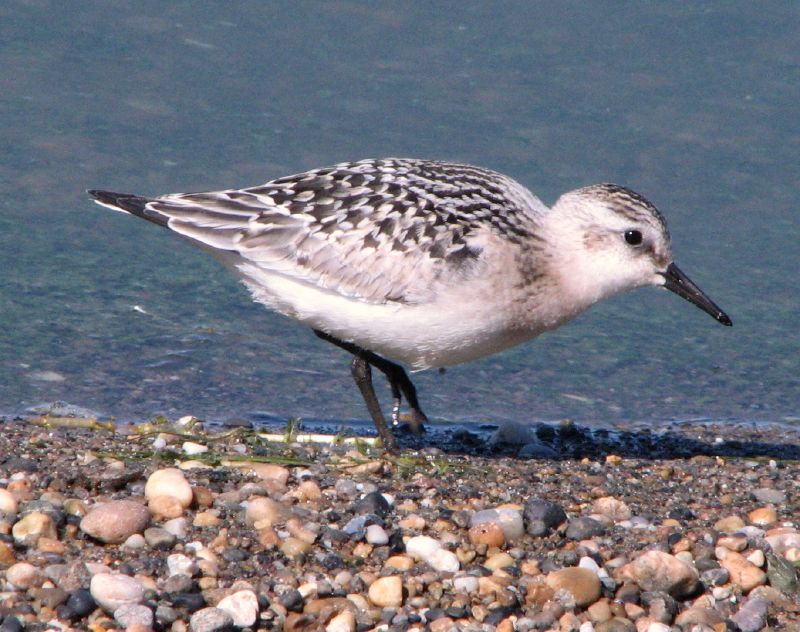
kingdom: Animalia
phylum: Chordata
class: Aves
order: Charadriiformes
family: Scolopacidae
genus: Calidris
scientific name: Calidris alba
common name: Sanderling
